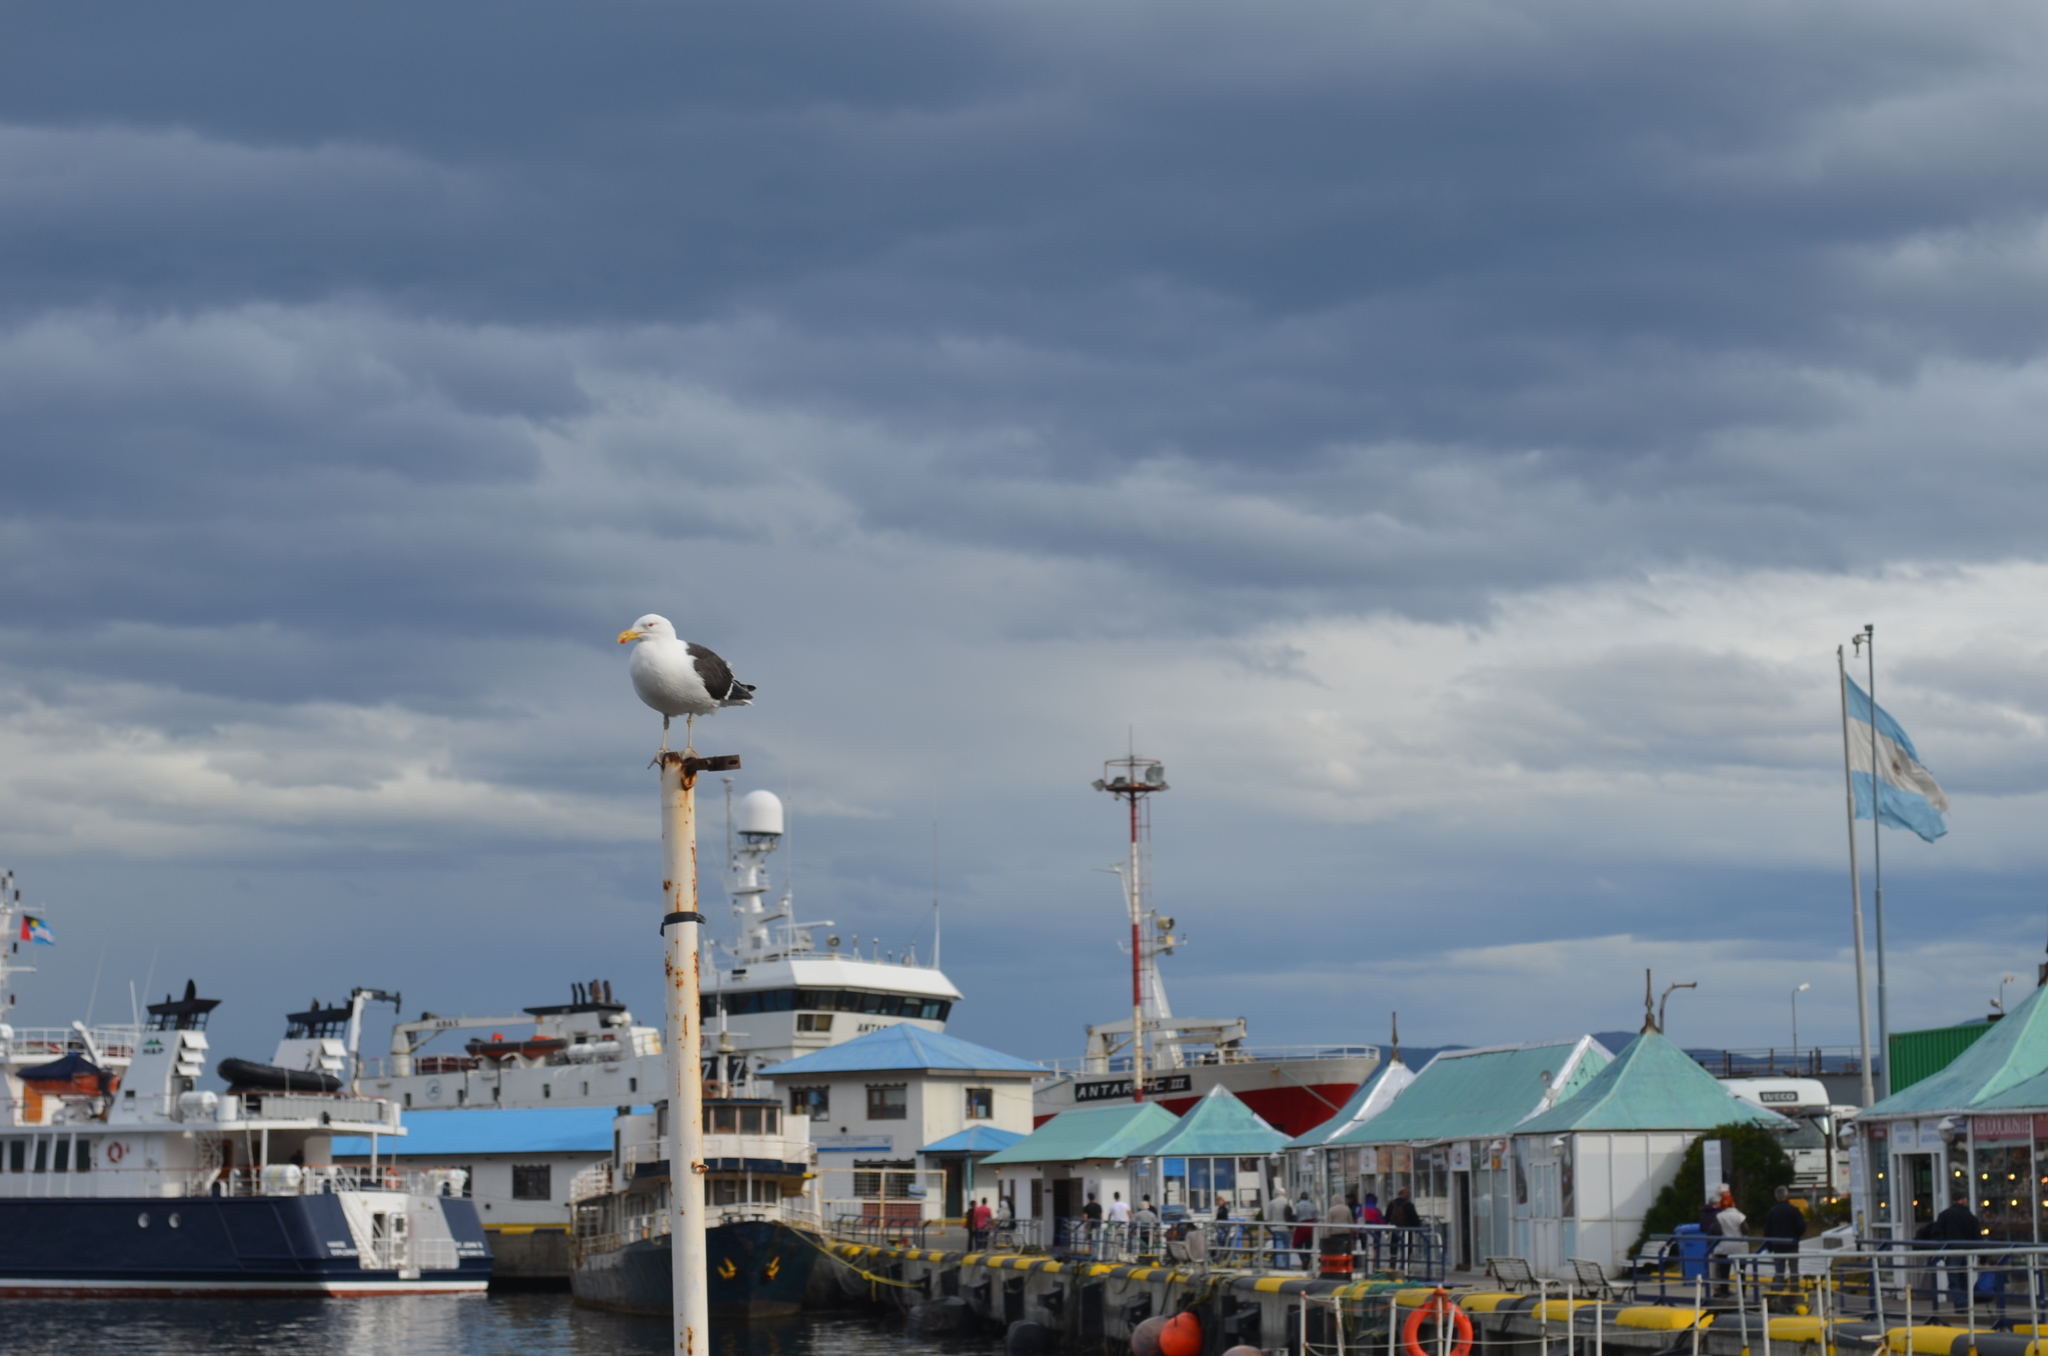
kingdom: Animalia
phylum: Chordata
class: Aves
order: Charadriiformes
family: Laridae
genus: Larus
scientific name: Larus dominicanus
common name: Kelp gull
